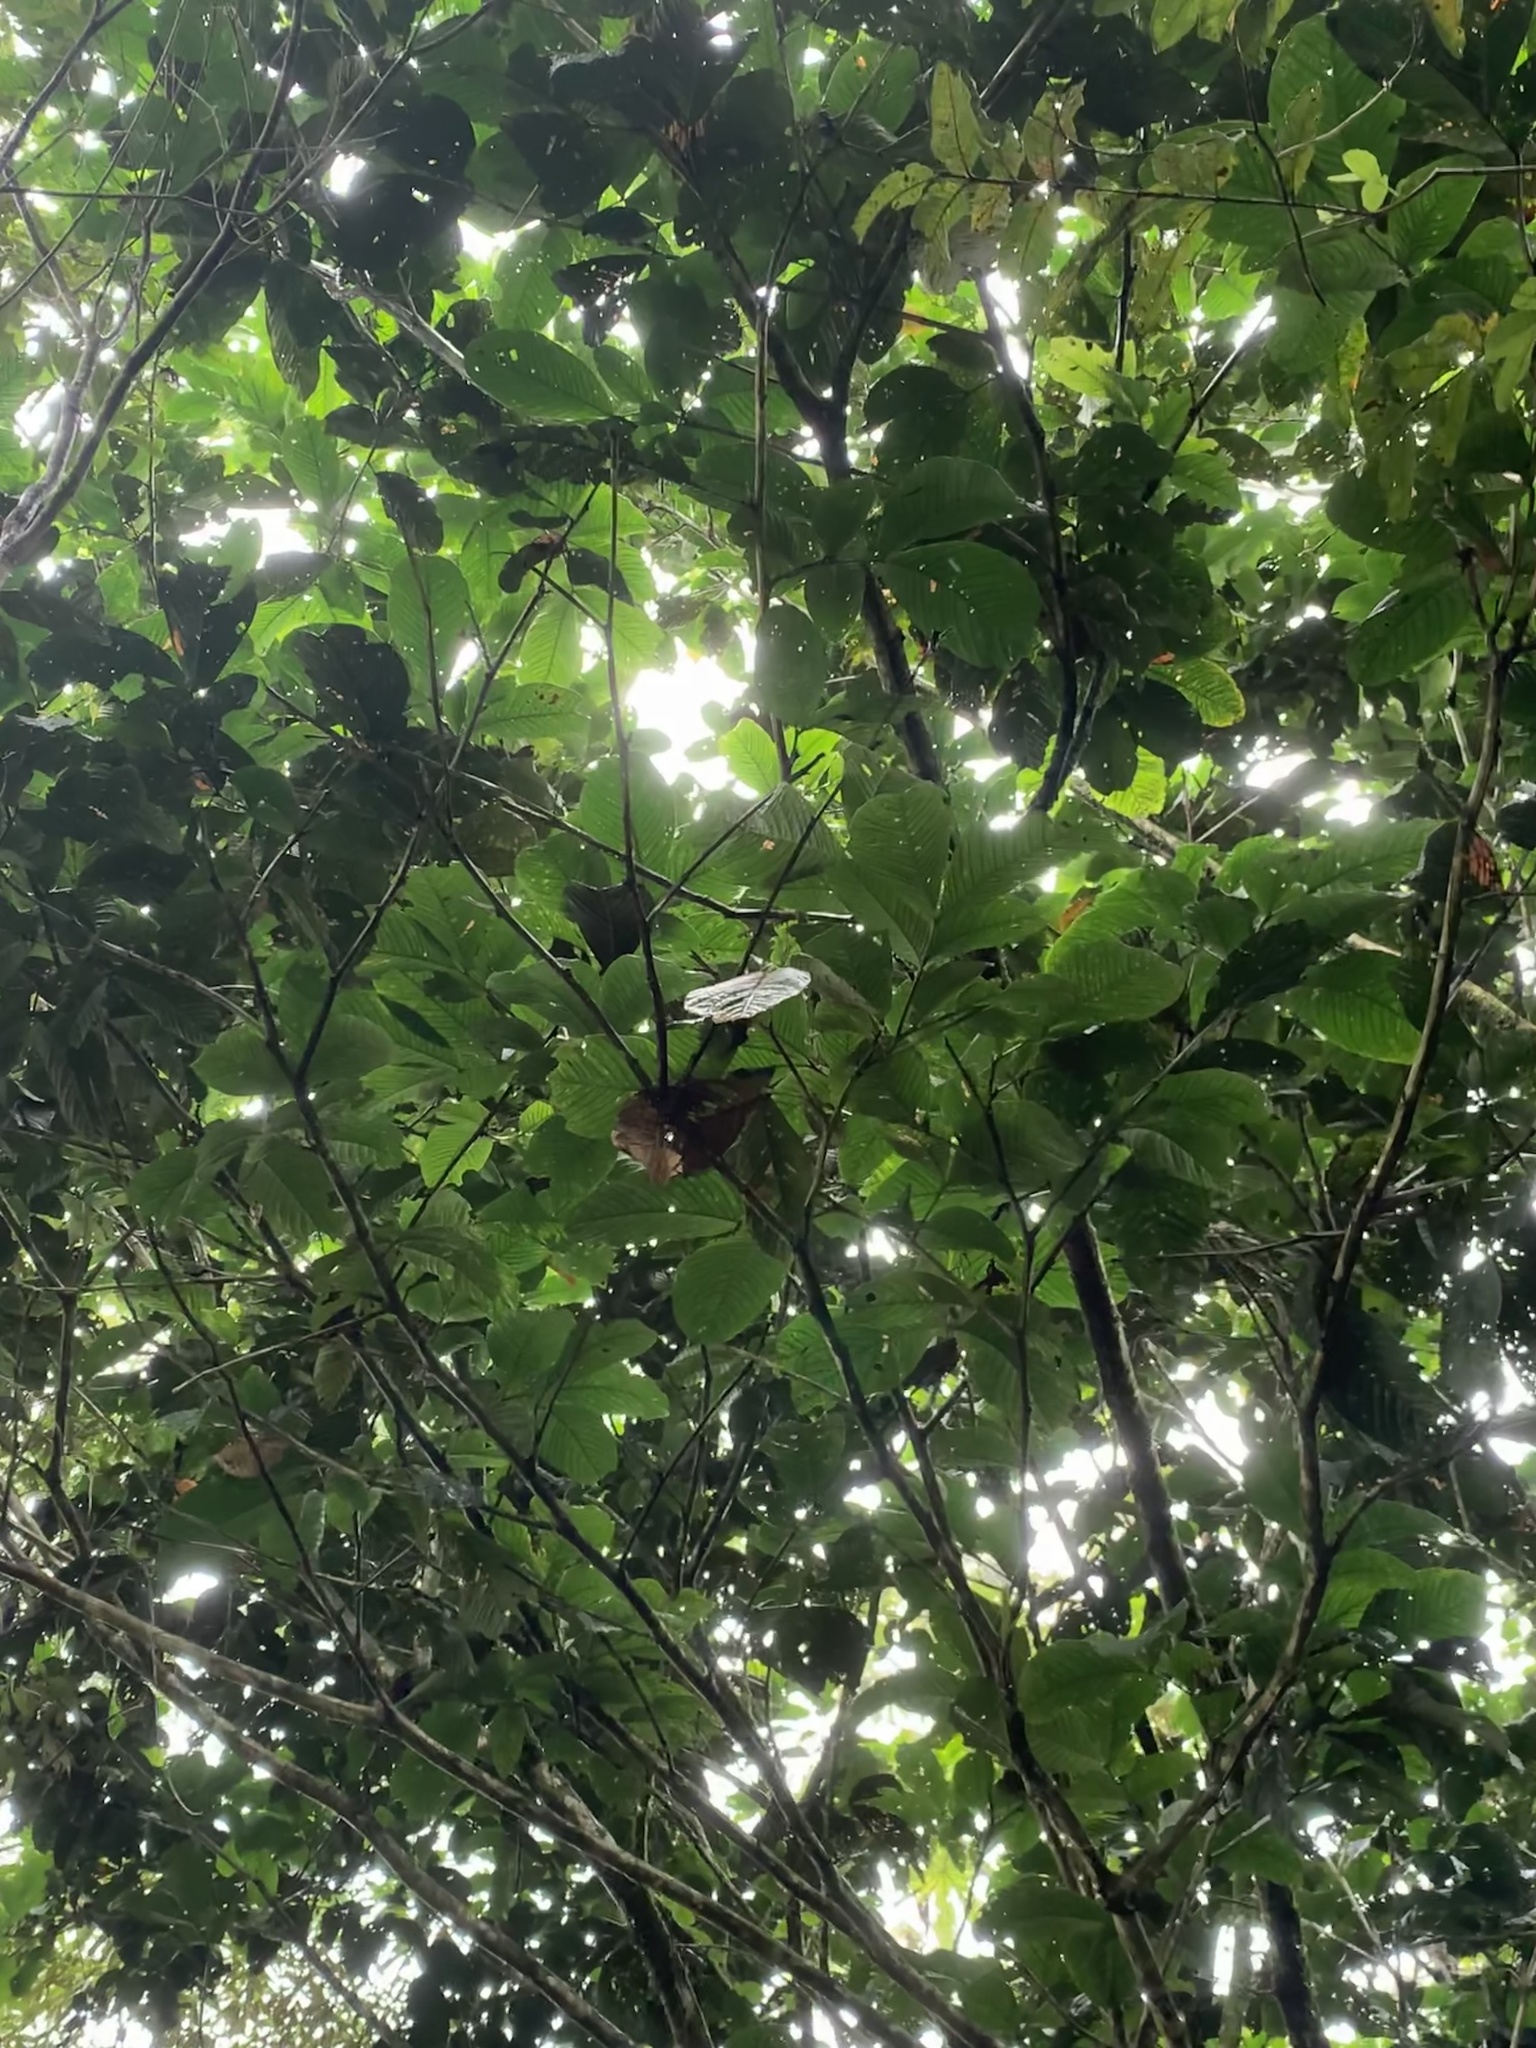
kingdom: Plantae
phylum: Tracheophyta
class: Magnoliopsida
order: Fabales
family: Fabaceae
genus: Inga
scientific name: Inga spectabilis
